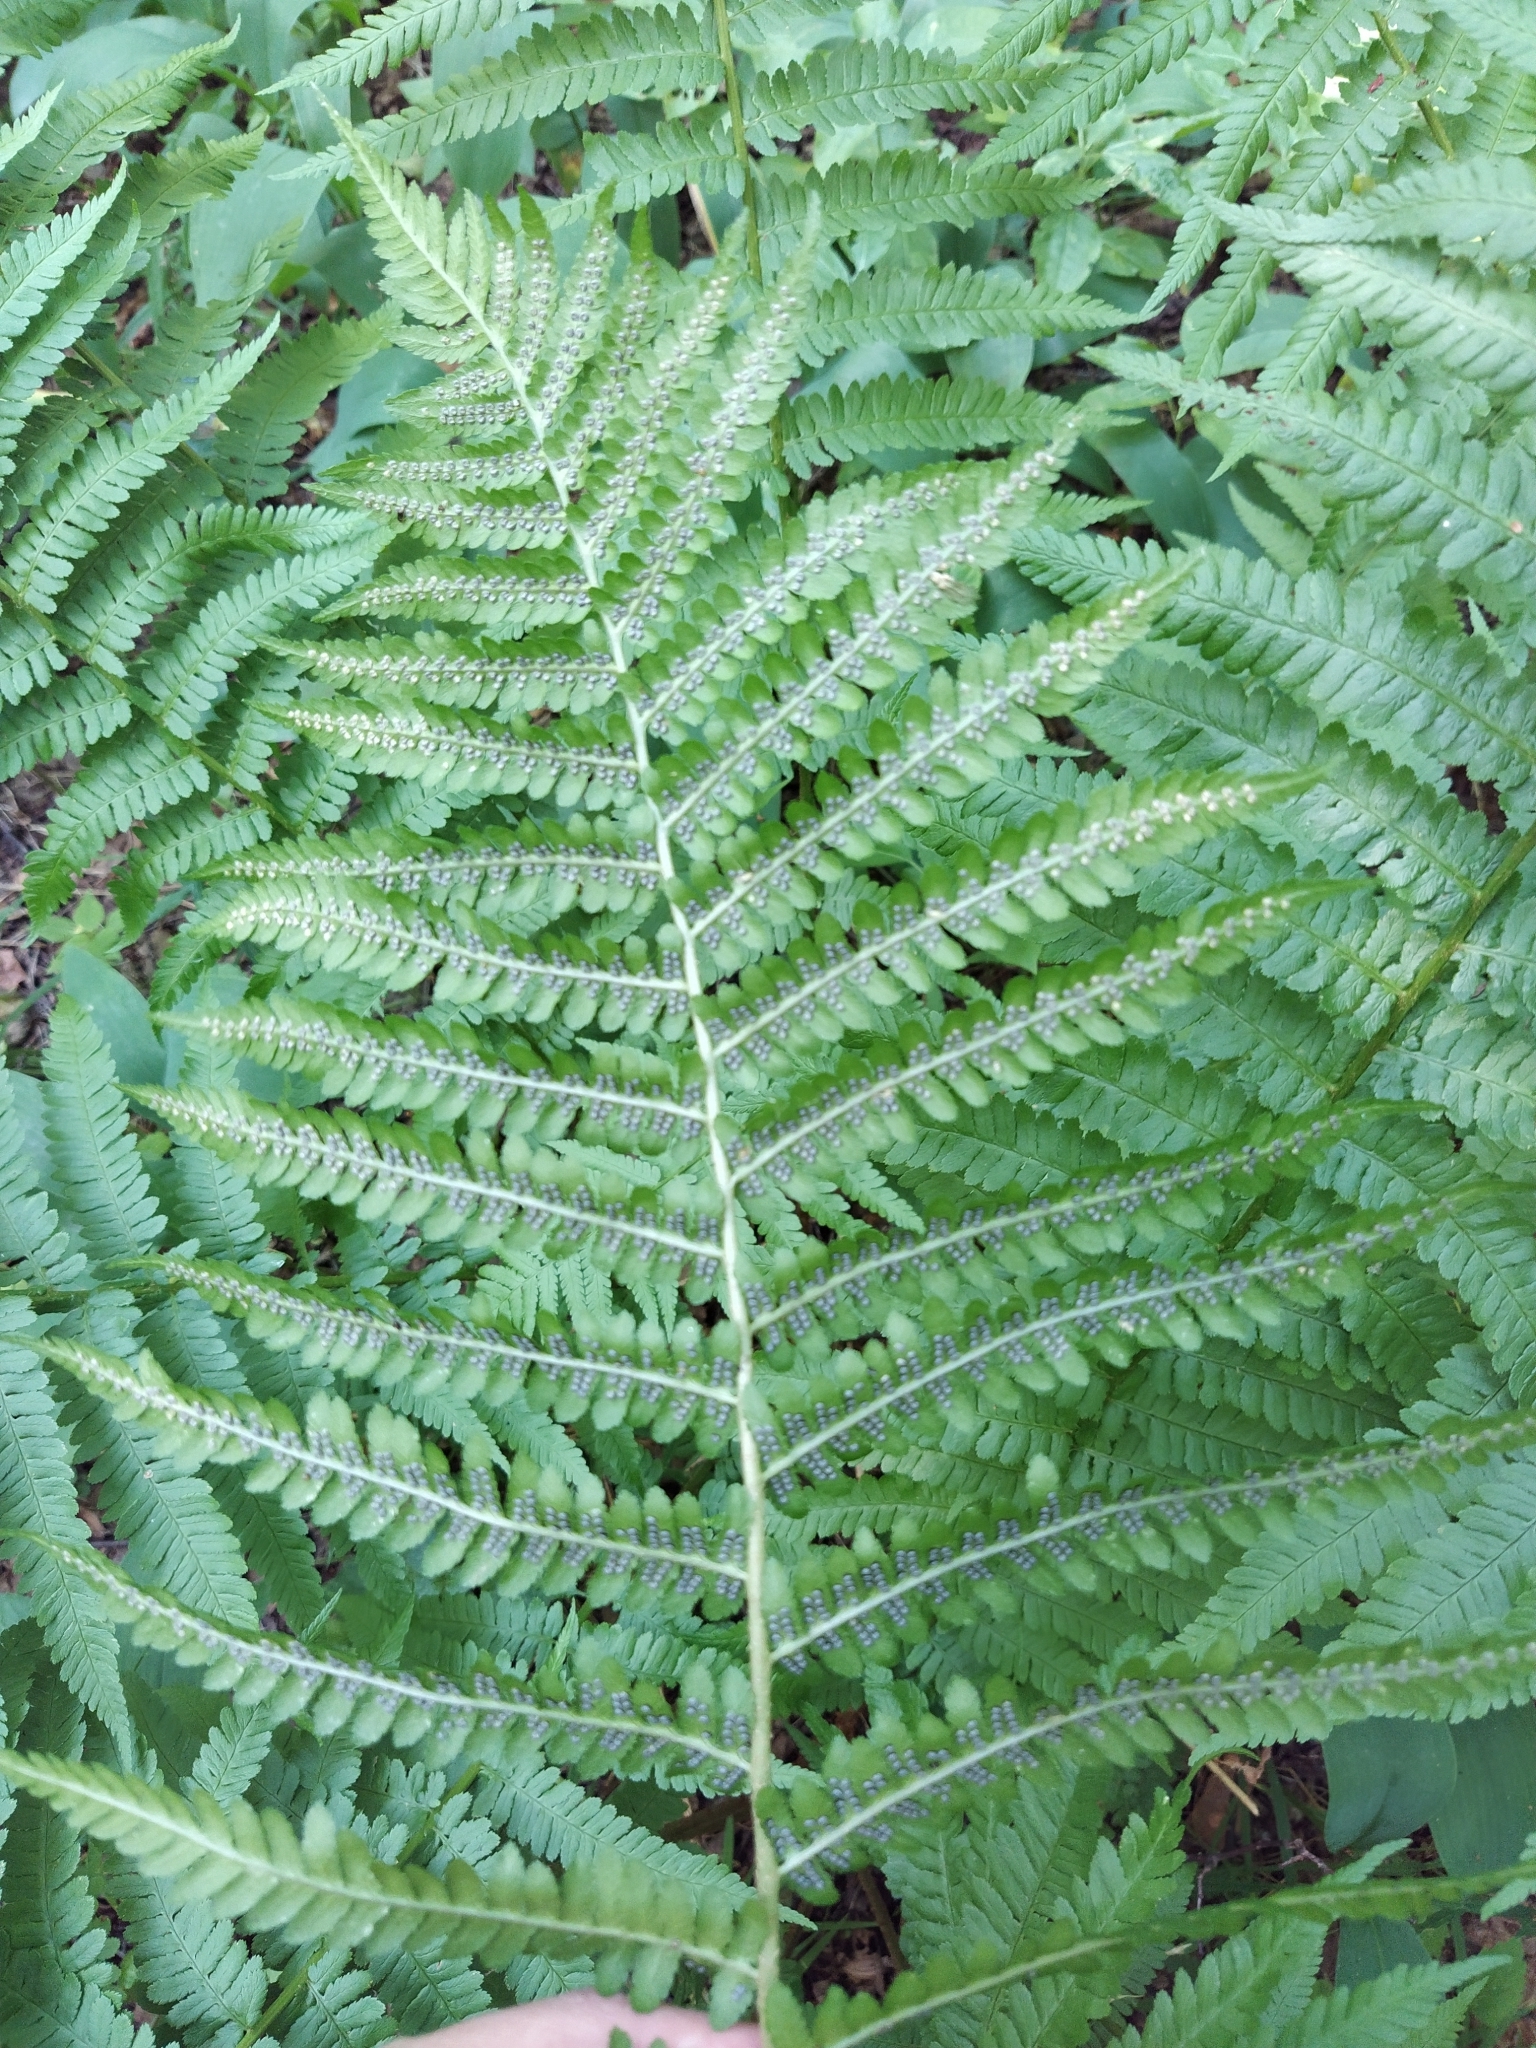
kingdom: Plantae
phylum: Tracheophyta
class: Polypodiopsida
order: Polypodiales
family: Dryopteridaceae
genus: Dryopteris
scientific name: Dryopteris filix-mas
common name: Male fern
